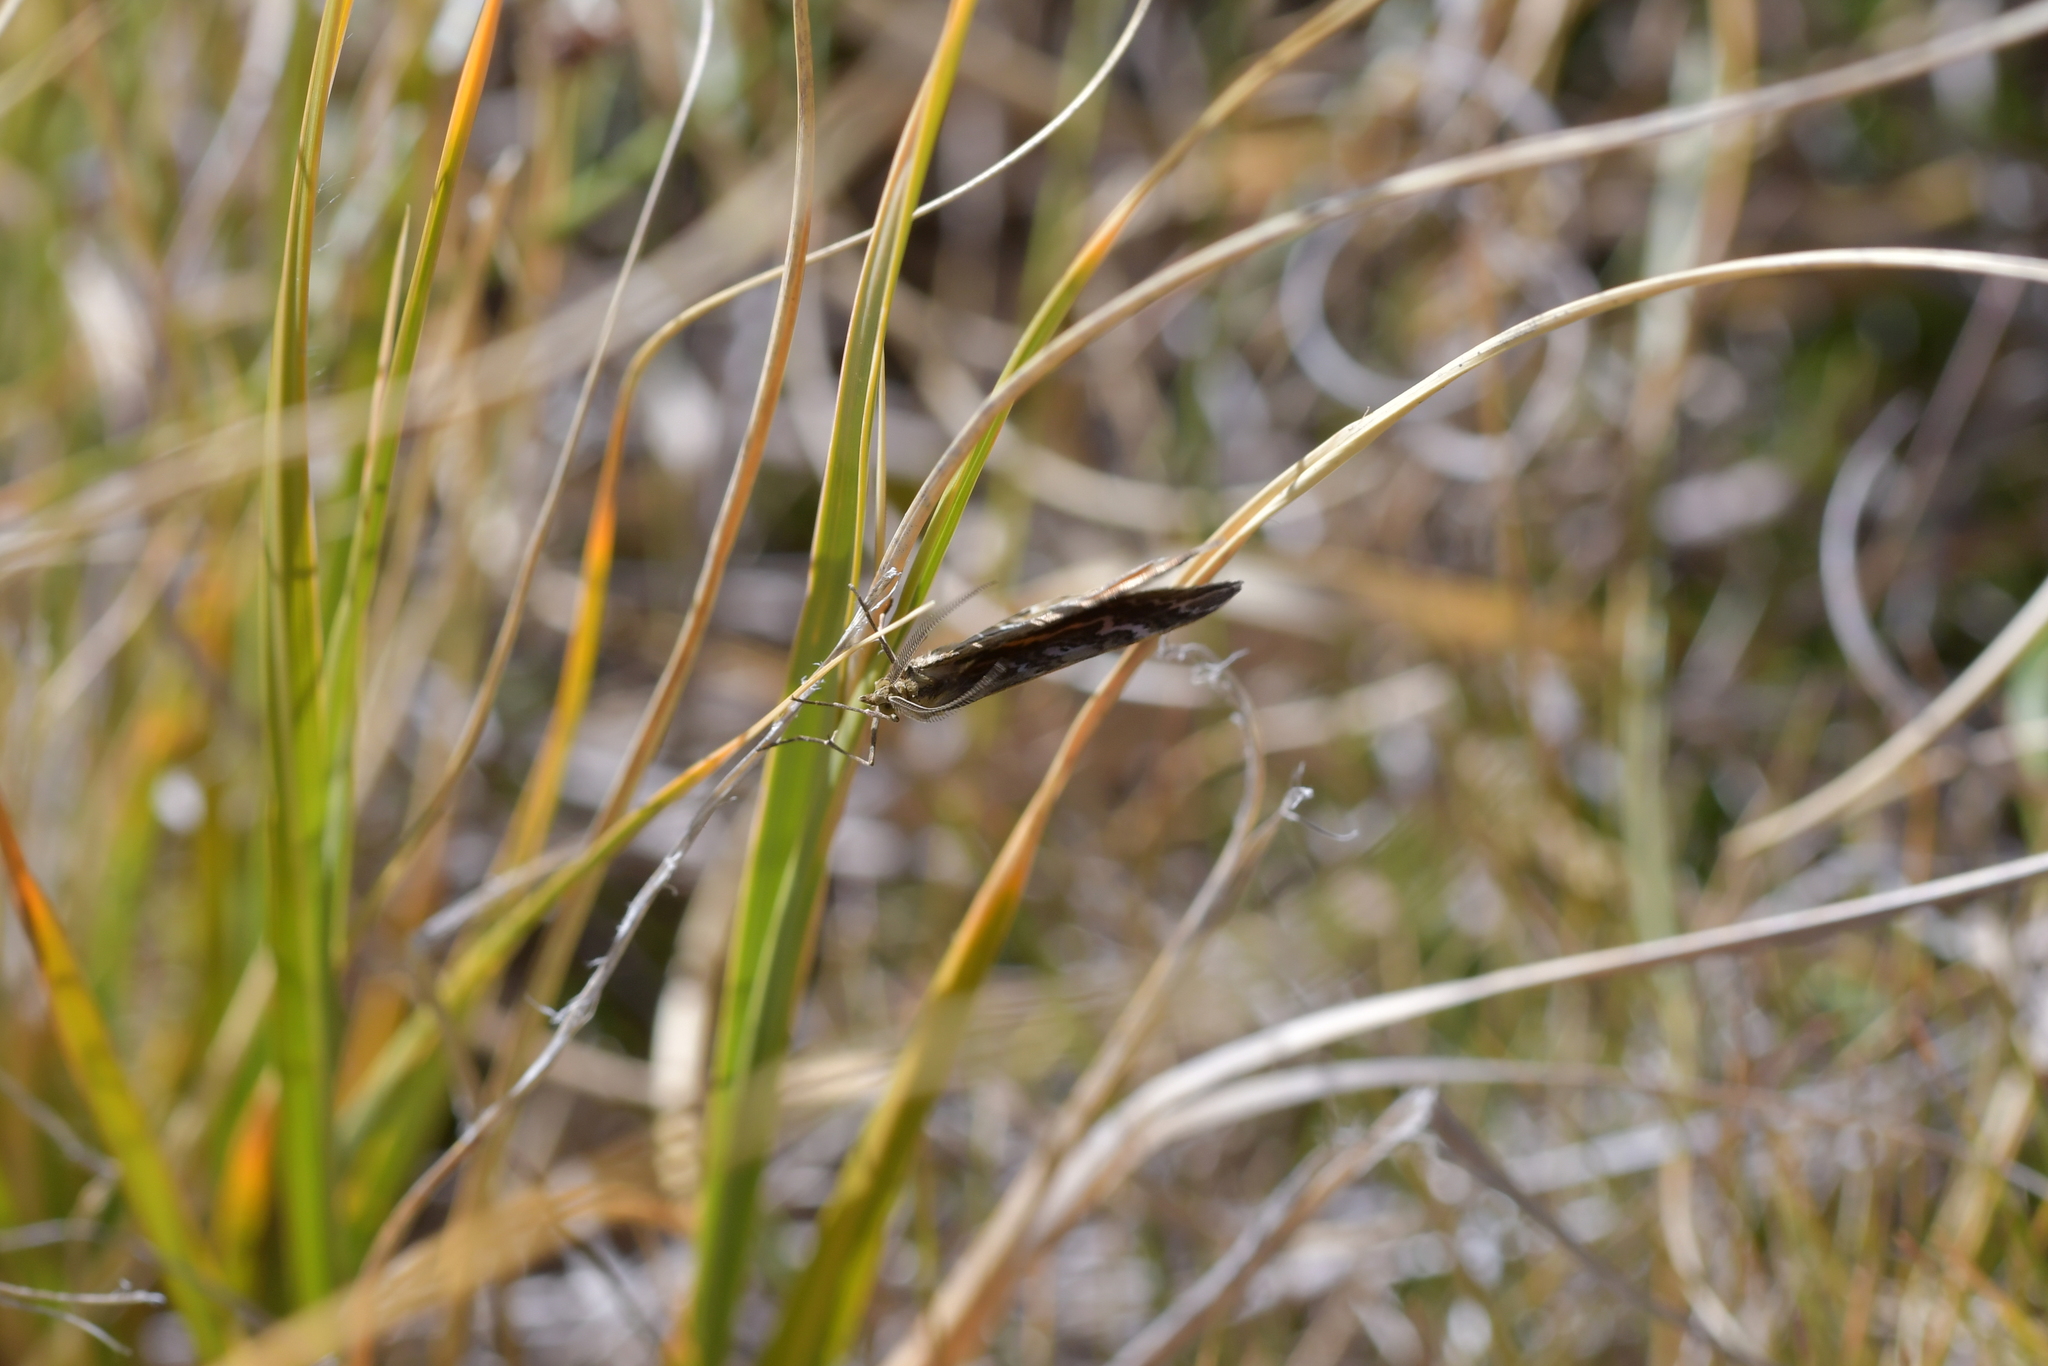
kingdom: Animalia
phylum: Arthropoda
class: Insecta
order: Lepidoptera
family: Geometridae
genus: Asaphodes
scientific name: Asaphodes clarata
